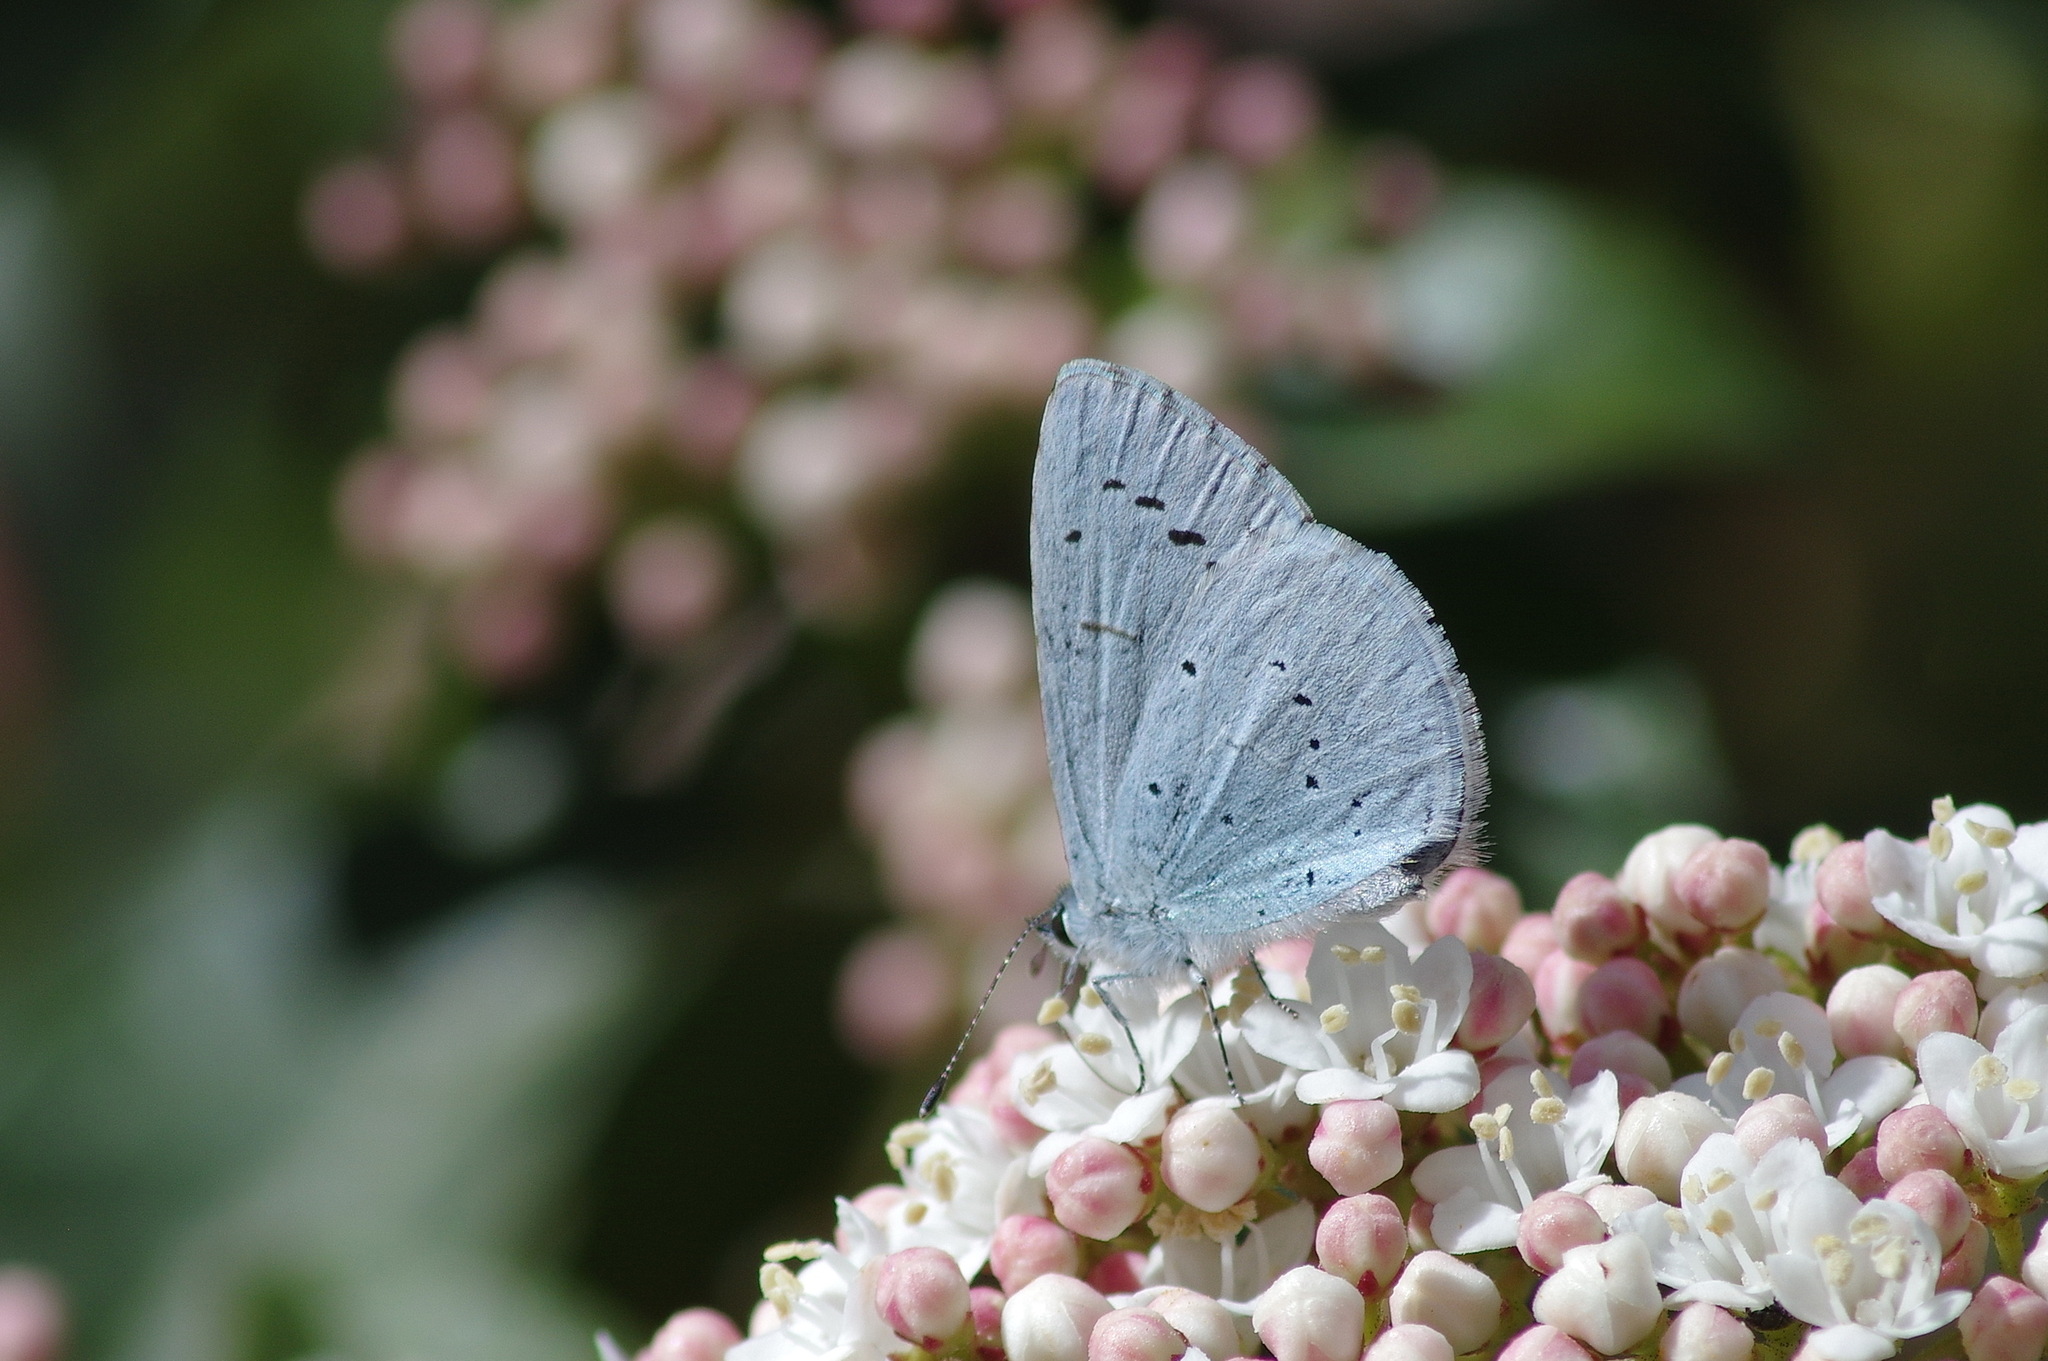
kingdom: Animalia
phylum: Arthropoda
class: Insecta
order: Lepidoptera
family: Lycaenidae
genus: Celastrina
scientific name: Celastrina argiolus
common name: Holly blue
